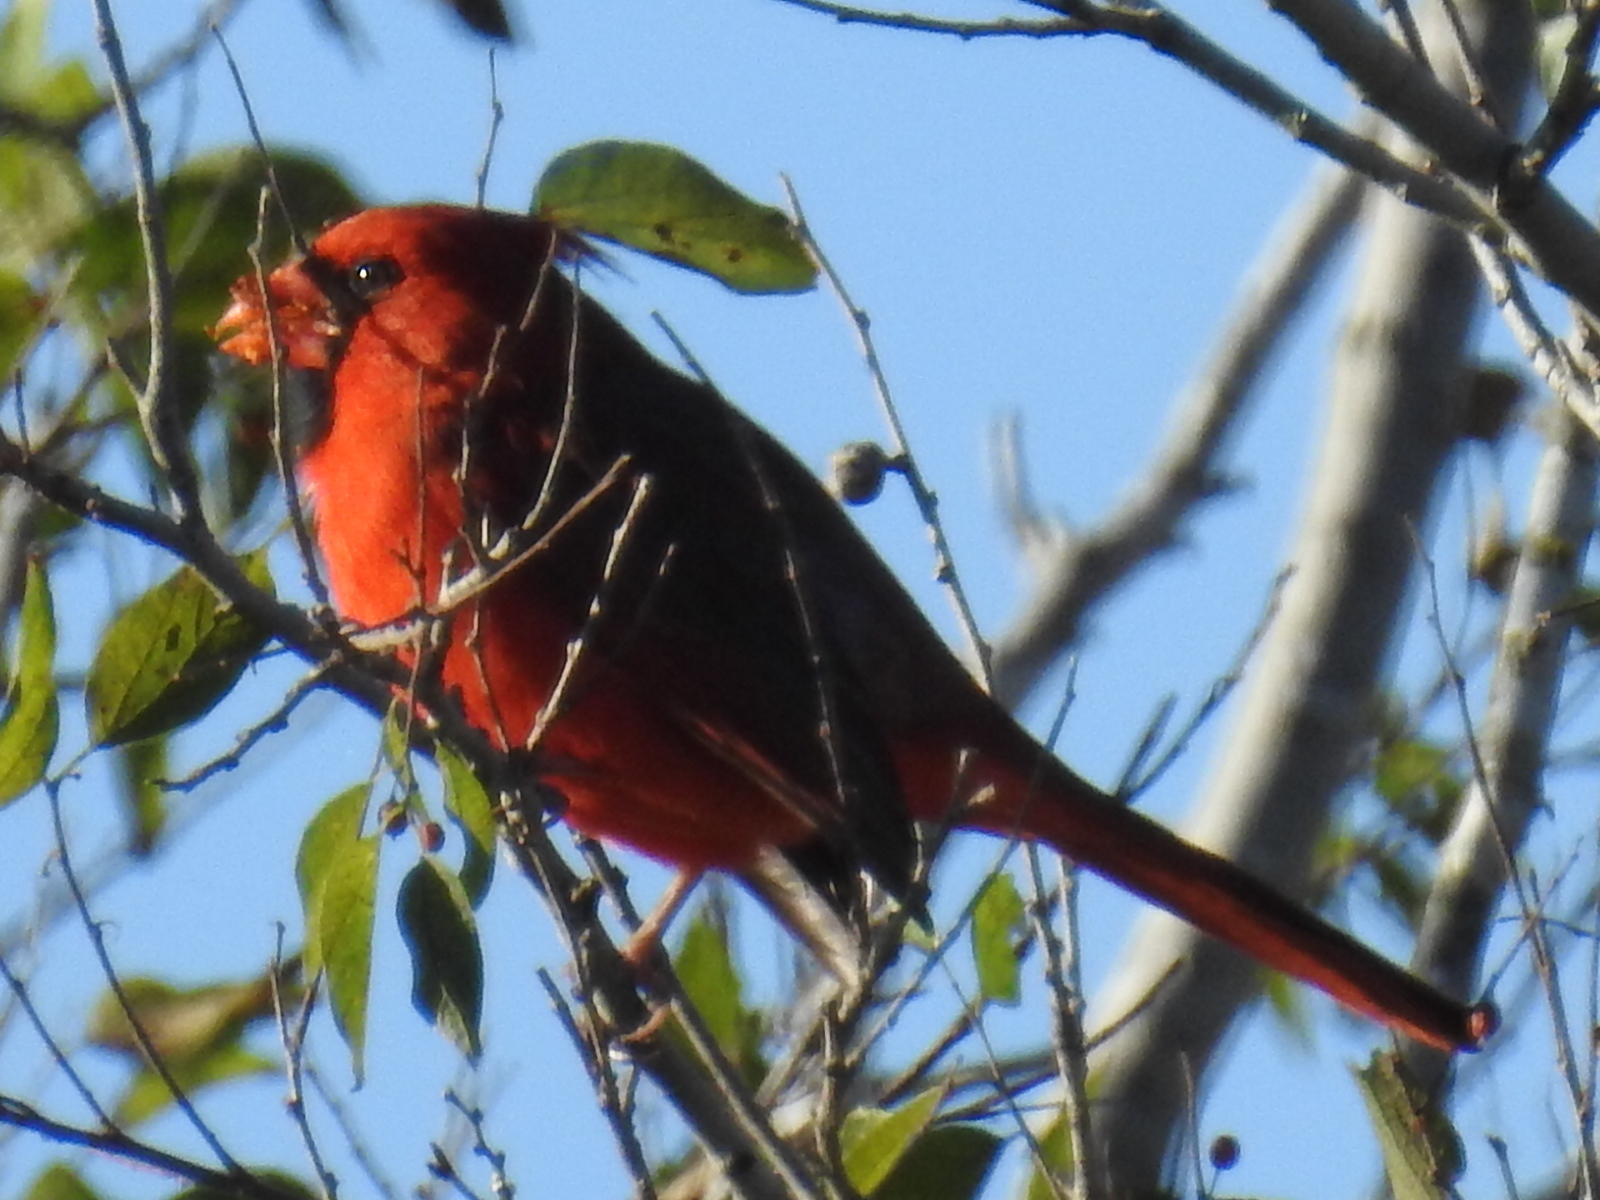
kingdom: Animalia
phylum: Chordata
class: Aves
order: Passeriformes
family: Cardinalidae
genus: Cardinalis
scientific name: Cardinalis cardinalis
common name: Northern cardinal
